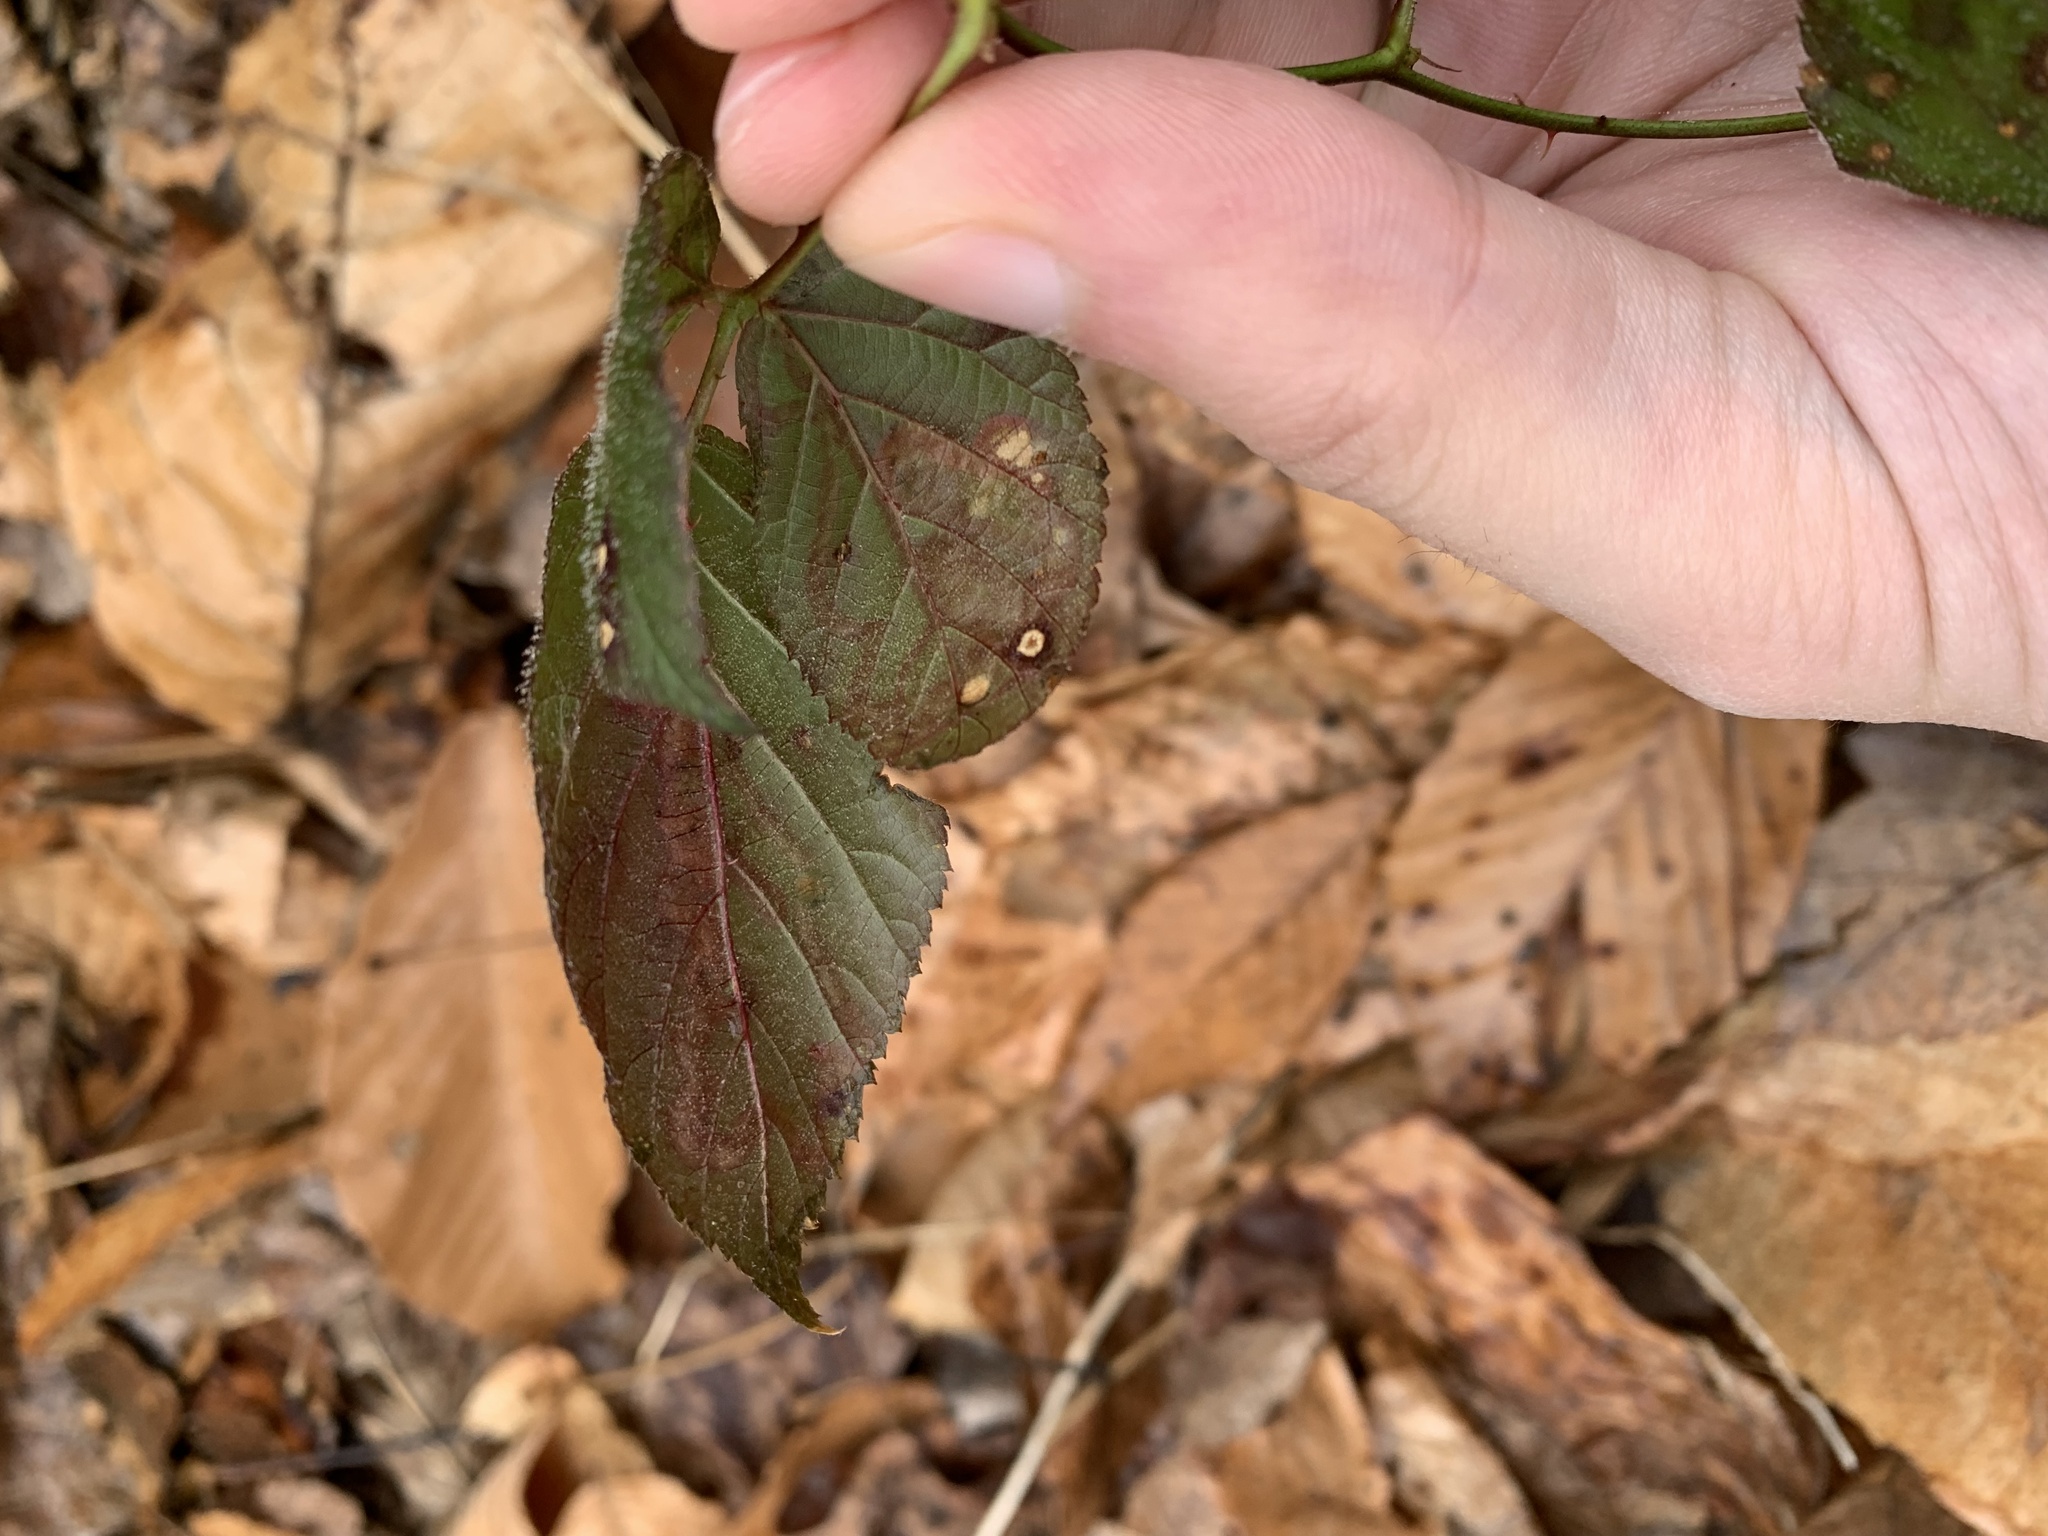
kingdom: Animalia
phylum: Arthropoda
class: Insecta
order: Diptera
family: Agromyzidae
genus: Agromyza
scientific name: Agromyza vockerothi
